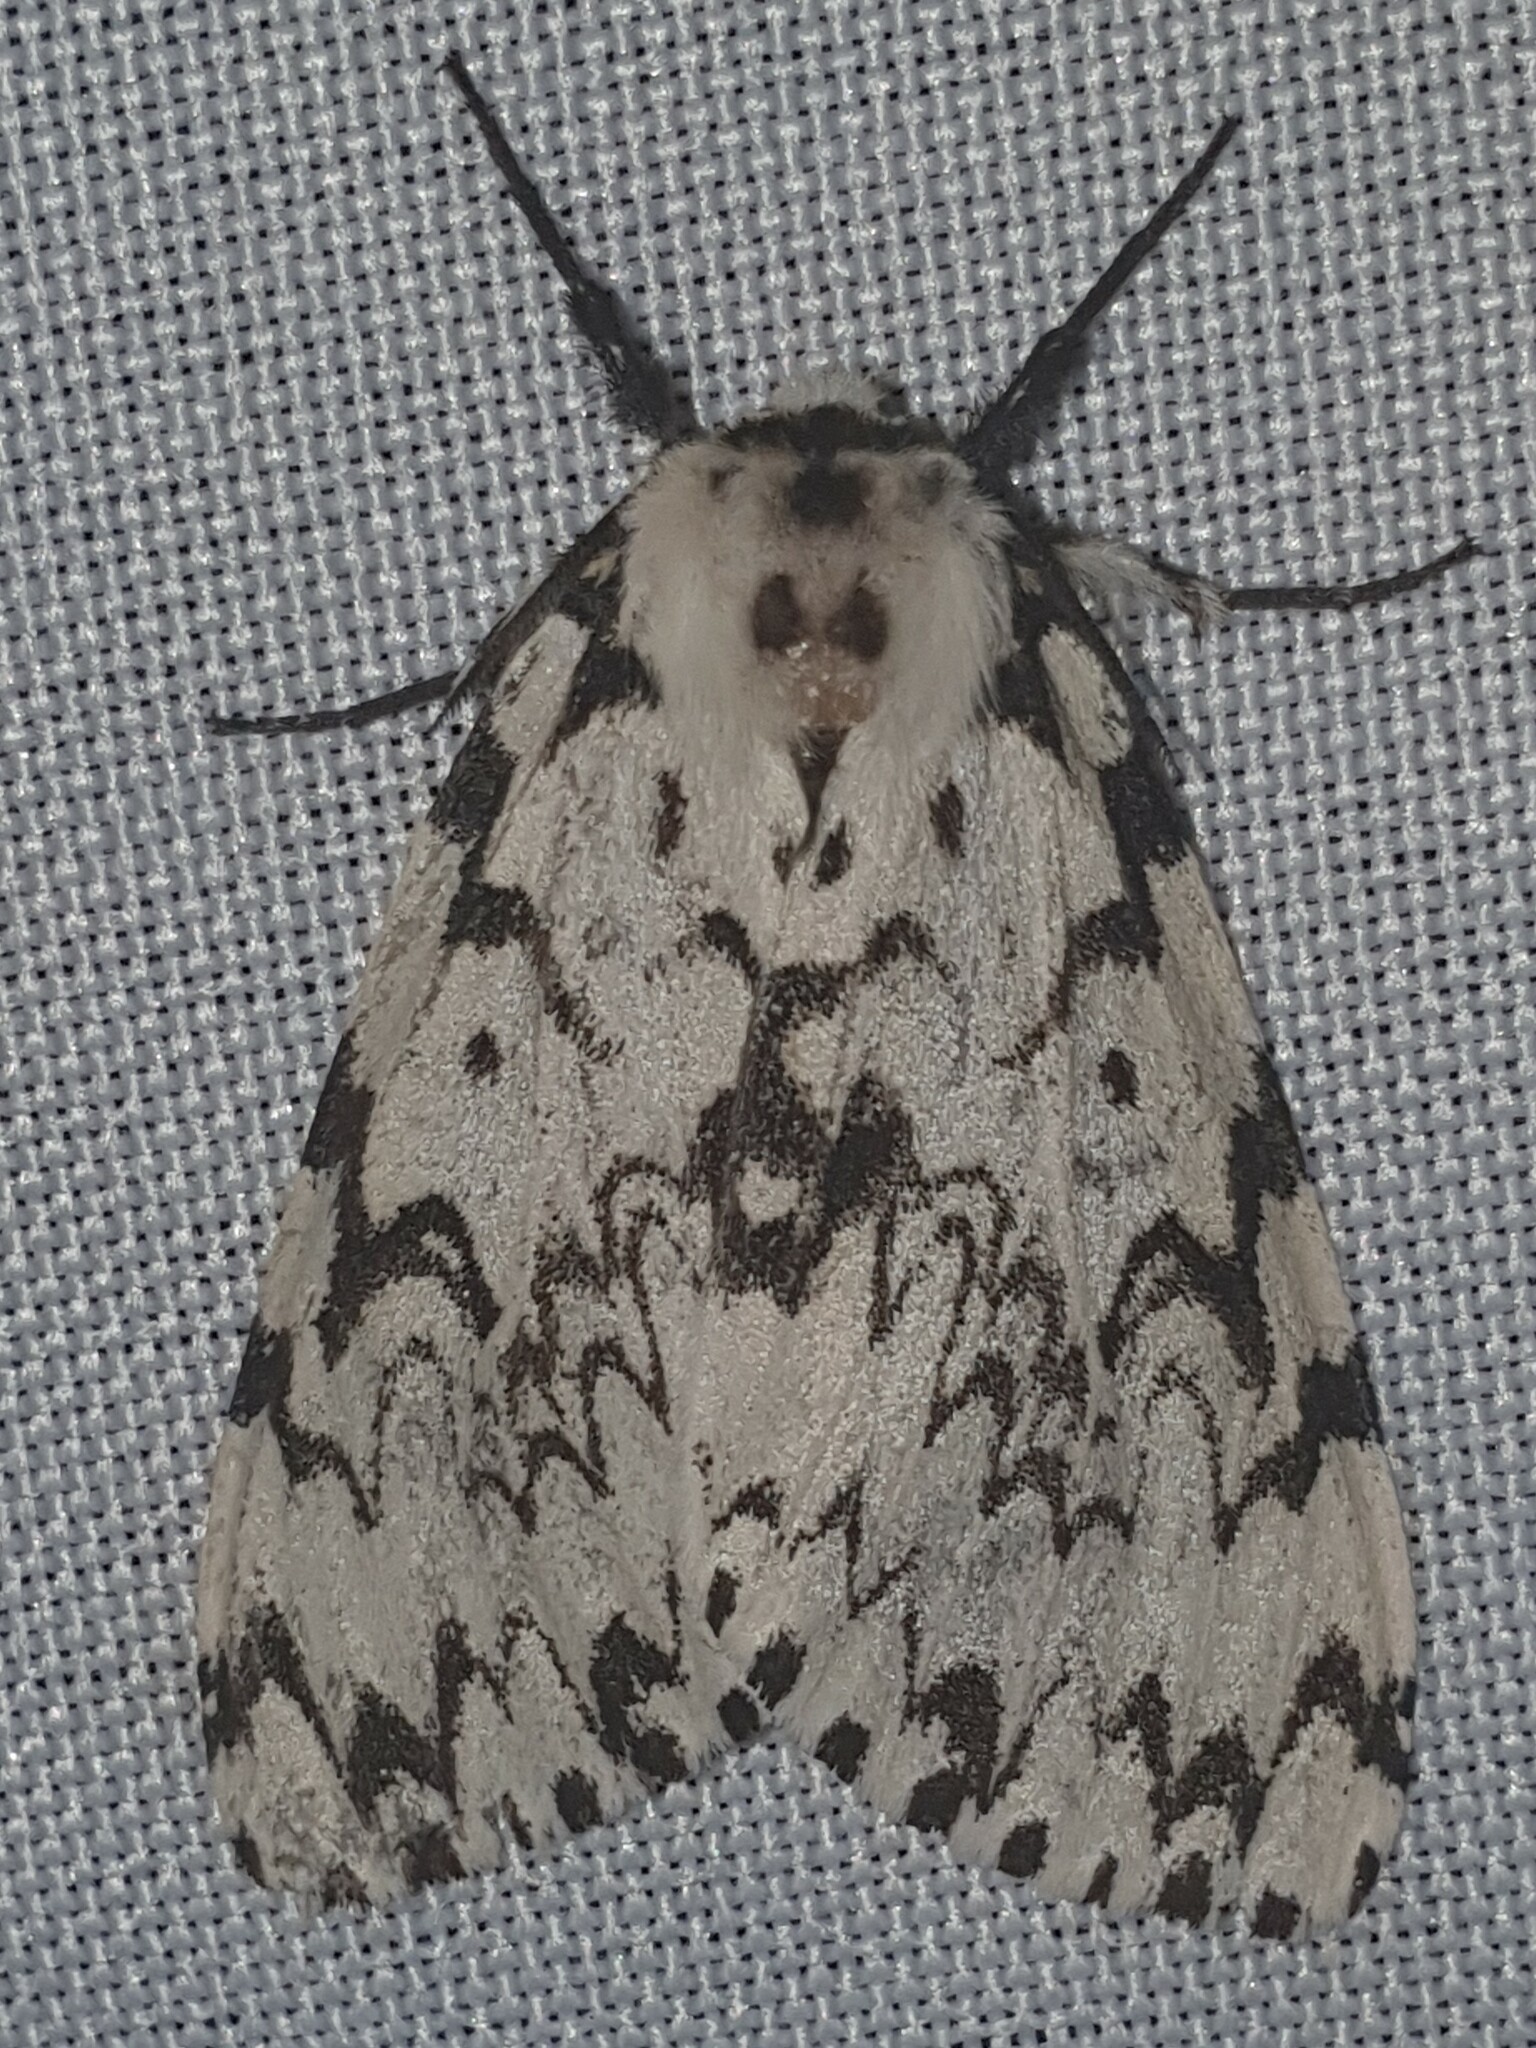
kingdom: Animalia
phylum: Arthropoda
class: Insecta
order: Lepidoptera
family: Erebidae
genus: Lymantria
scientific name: Lymantria monacha
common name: Black arches
